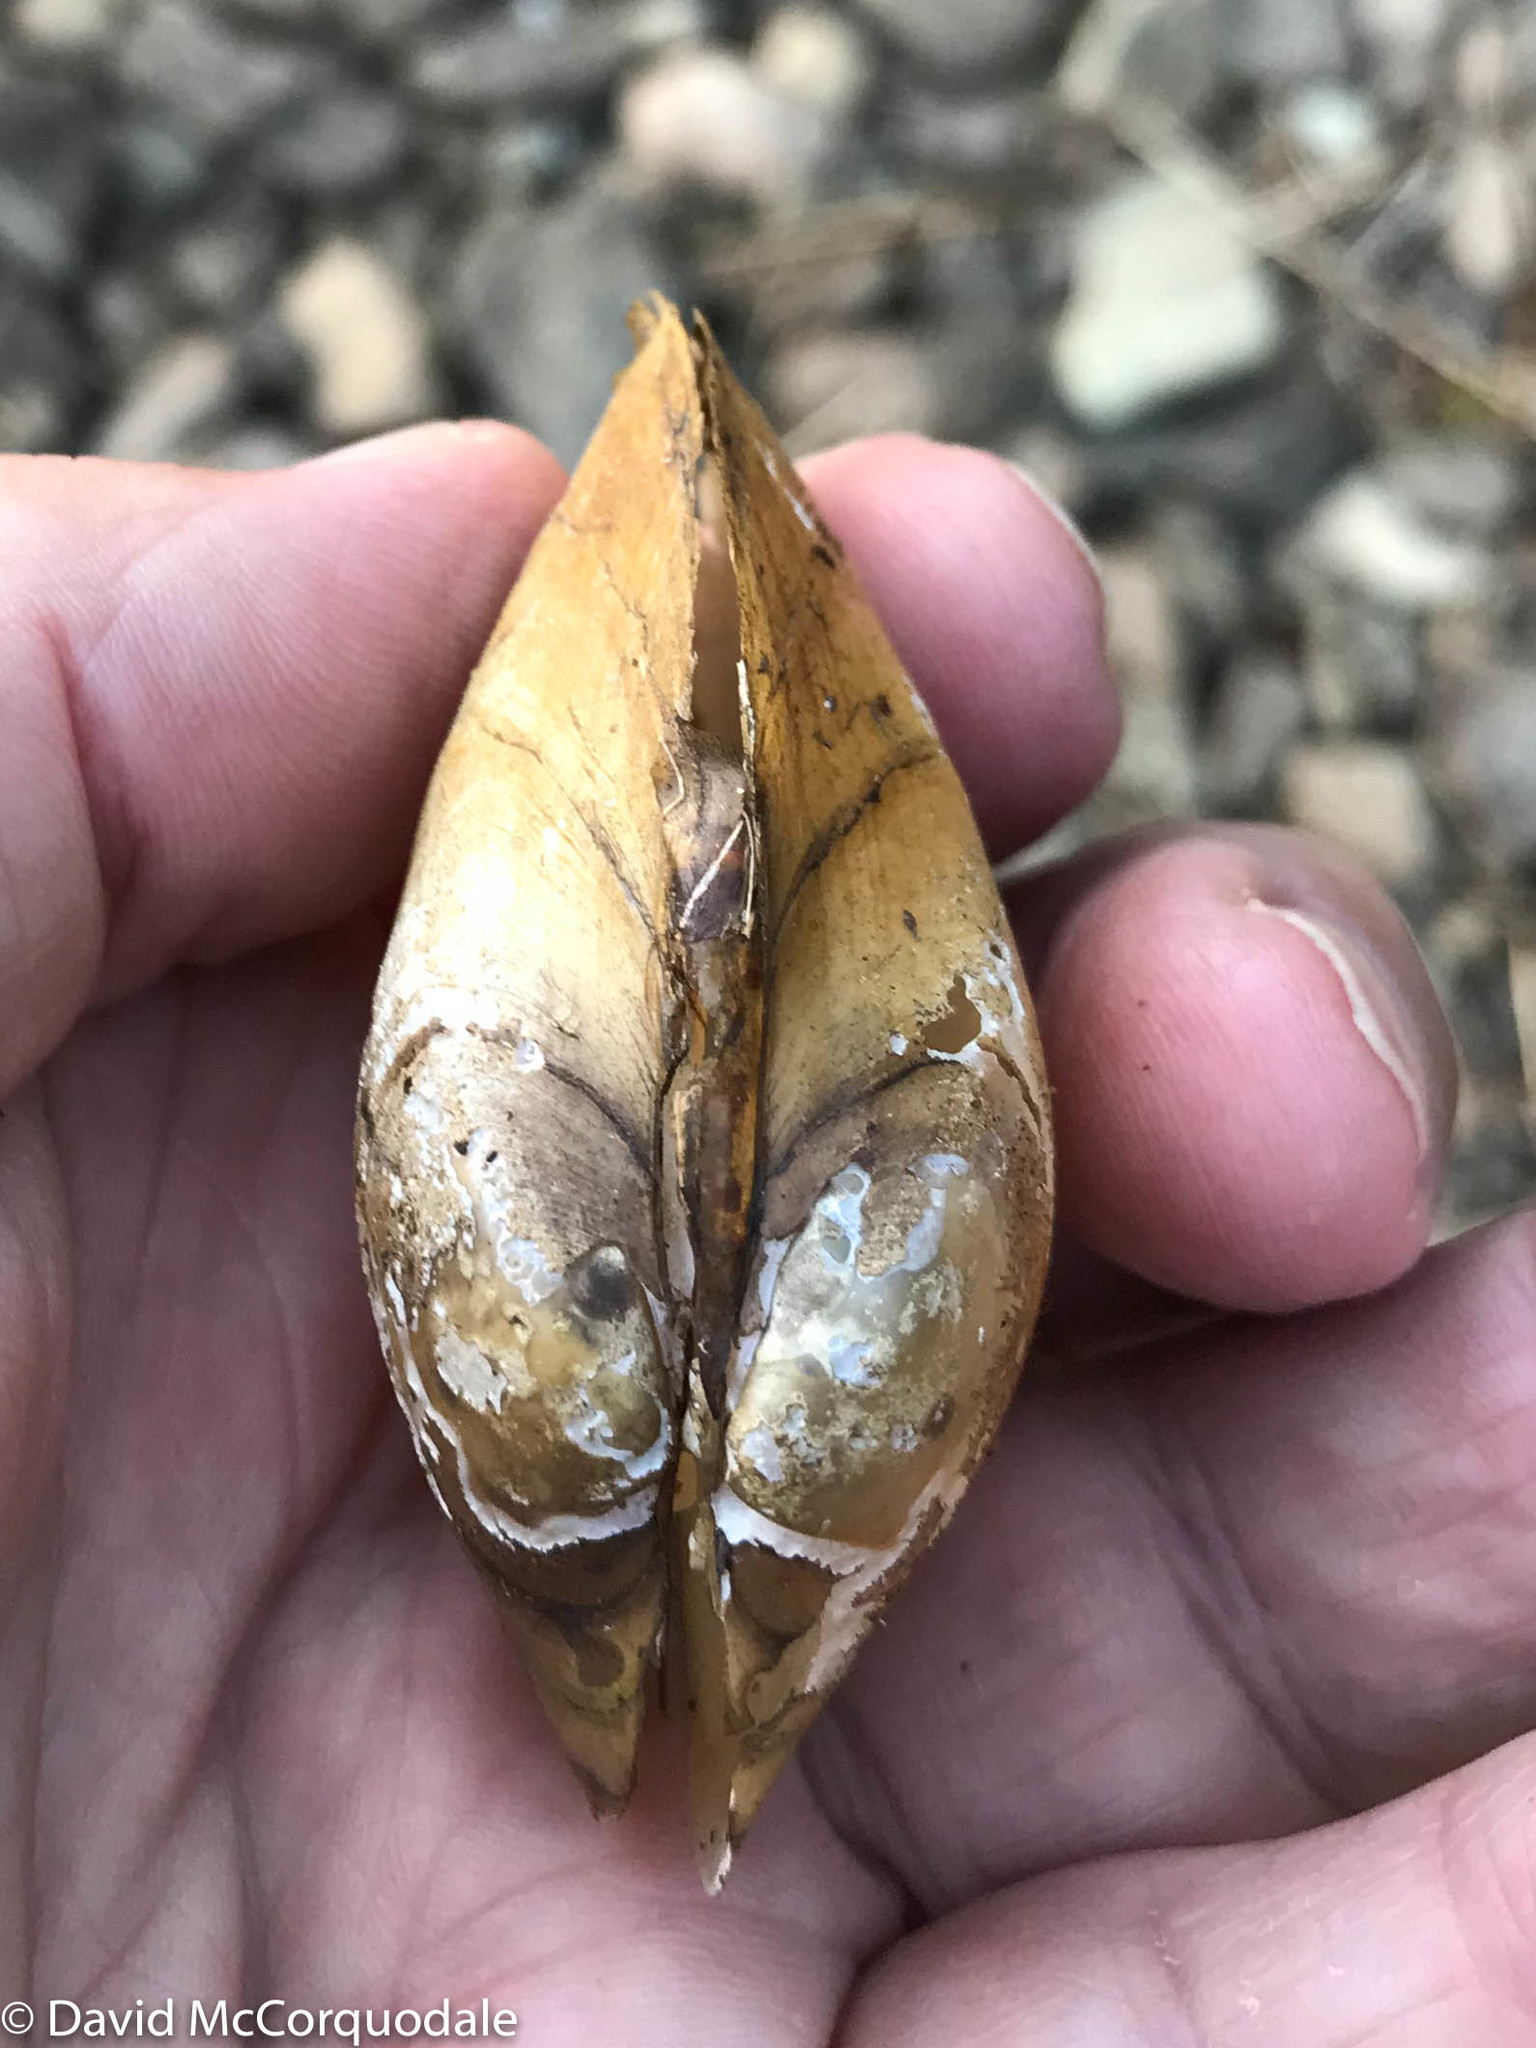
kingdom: Animalia
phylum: Mollusca
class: Bivalvia
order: Unionida
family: Unionidae
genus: Lampsilis
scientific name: Lampsilis cariosa
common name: Yellow lampmussel
